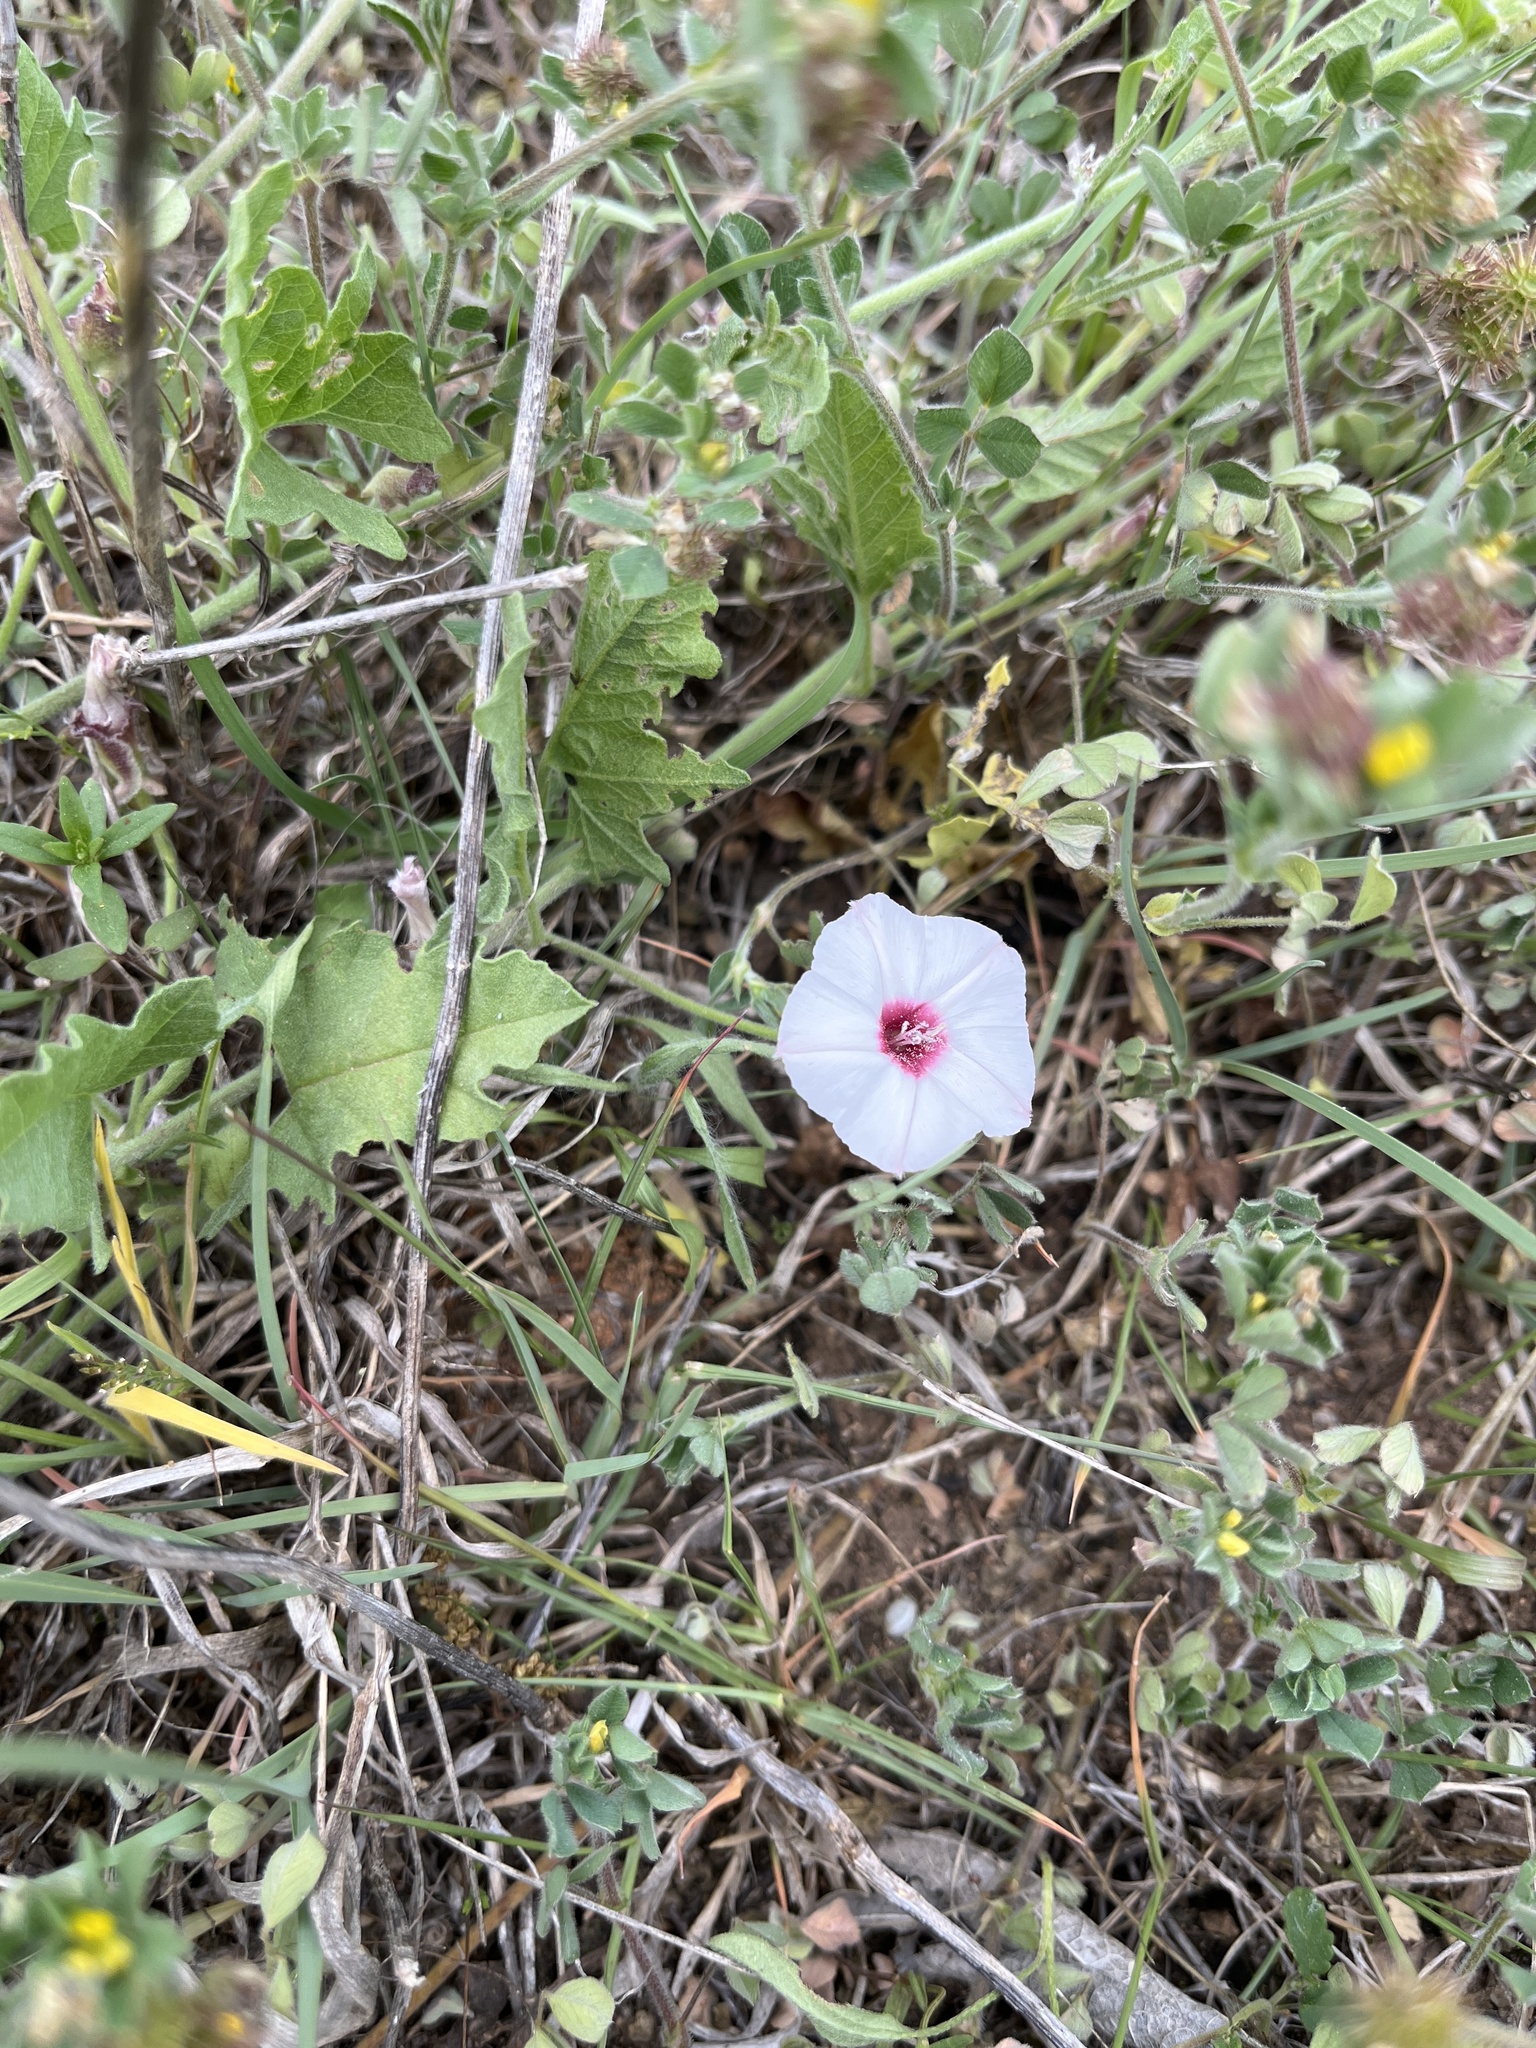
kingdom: Plantae
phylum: Tracheophyta
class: Magnoliopsida
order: Solanales
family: Convolvulaceae
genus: Convolvulus
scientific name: Convolvulus equitans
